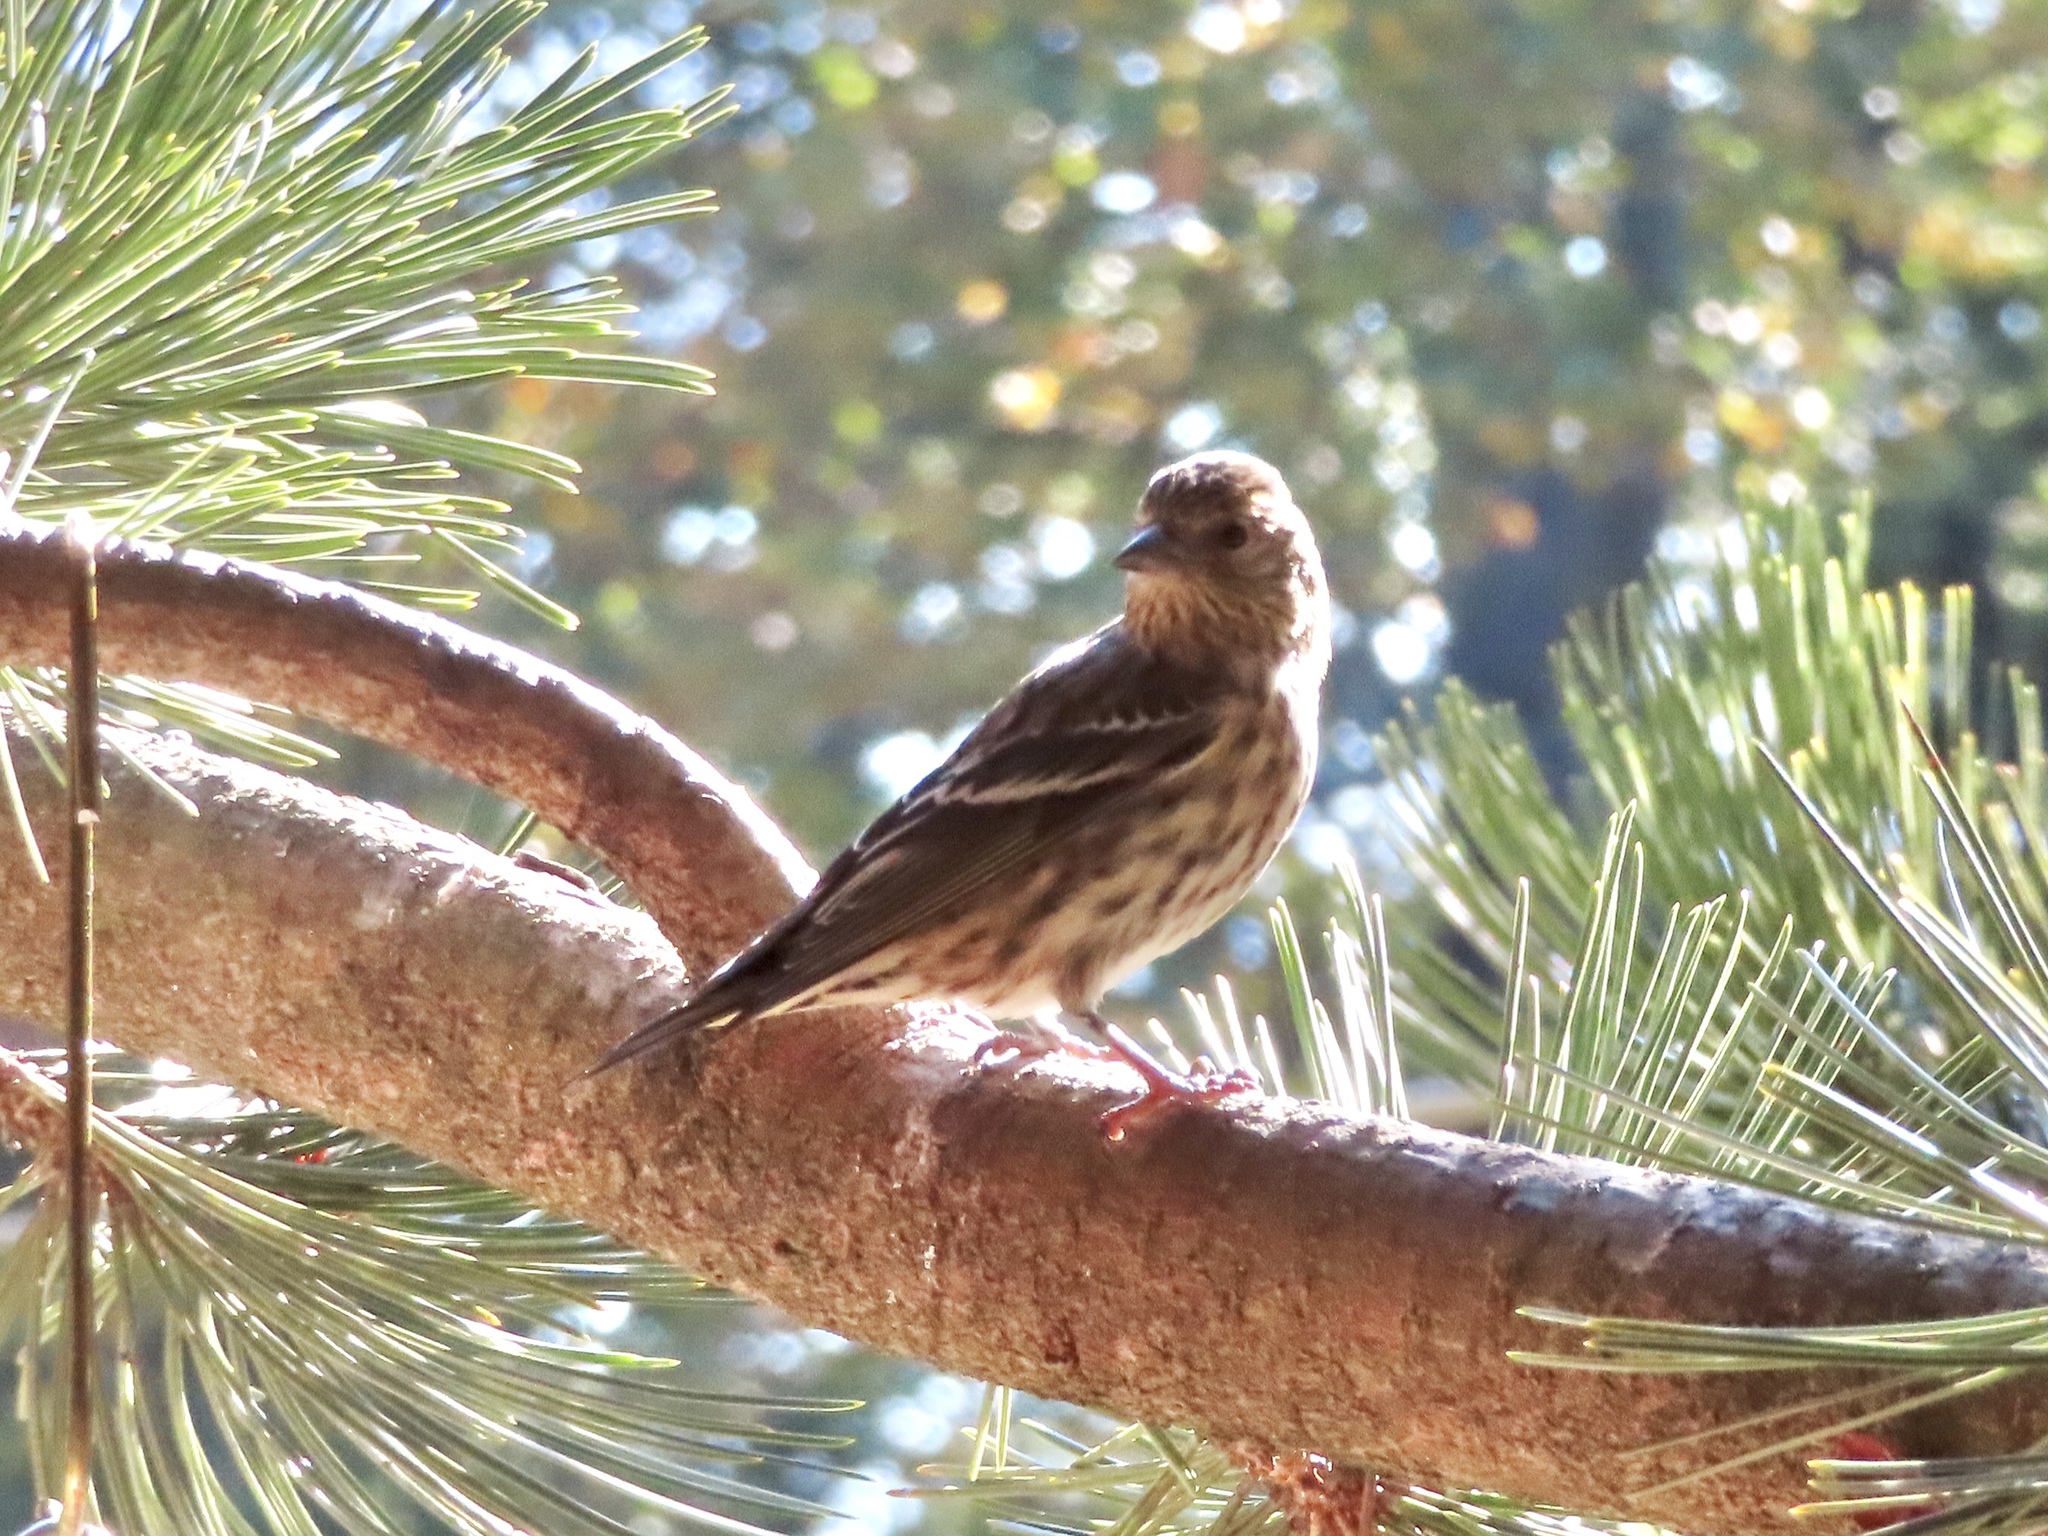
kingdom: Animalia
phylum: Chordata
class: Aves
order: Passeriformes
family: Fringillidae
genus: Spinus
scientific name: Spinus pinus
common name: Pine siskin
